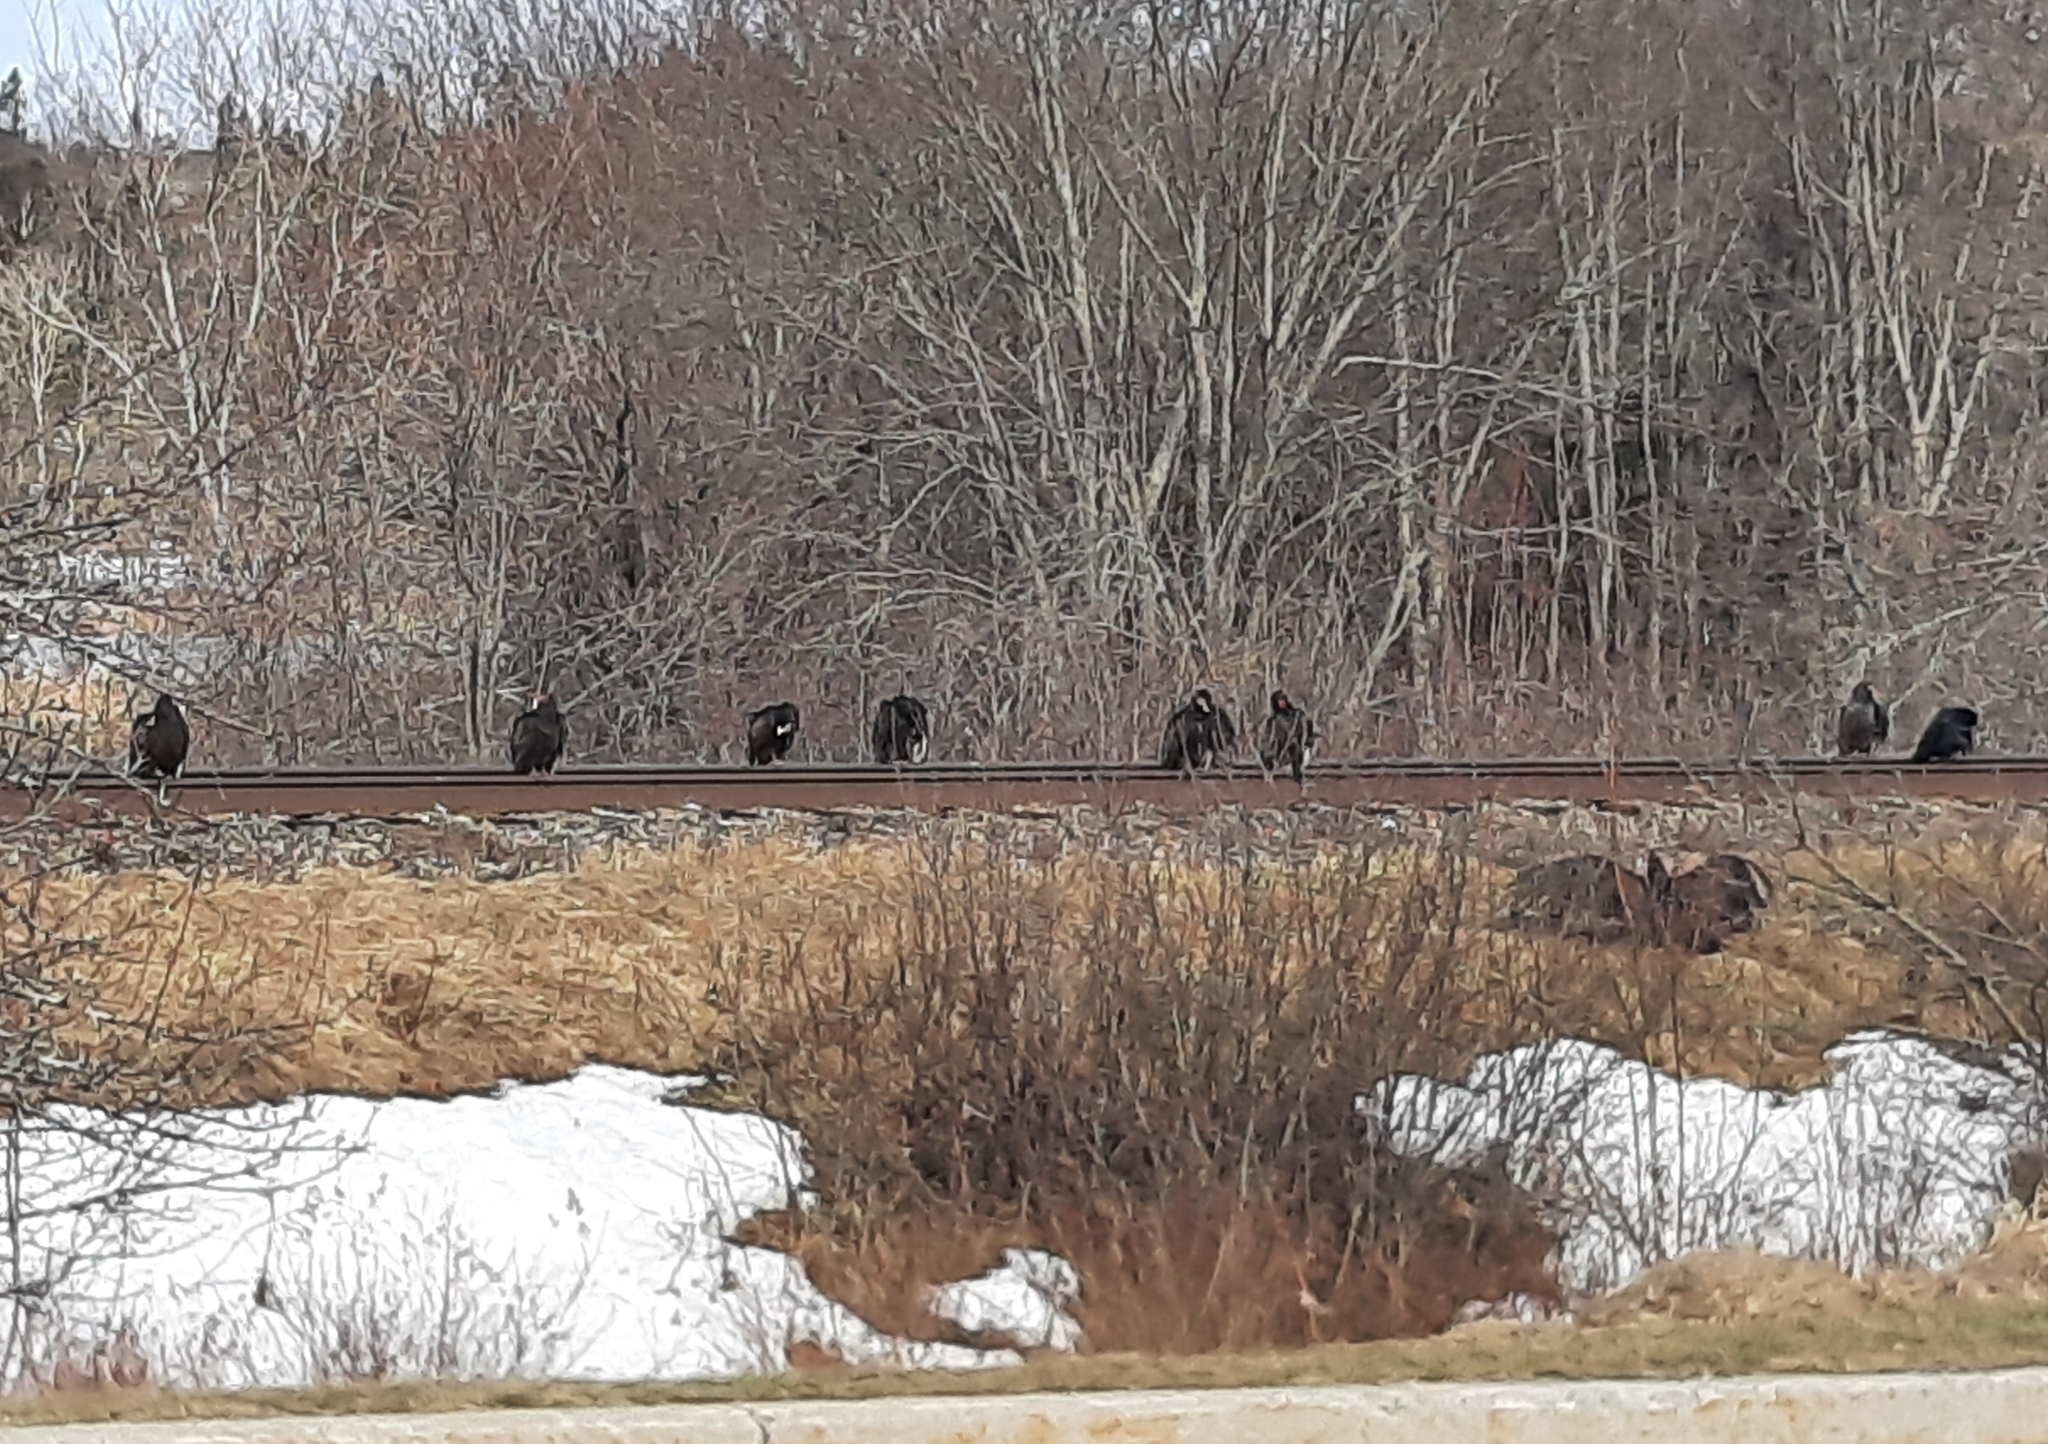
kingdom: Animalia
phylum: Chordata
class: Aves
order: Accipitriformes
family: Cathartidae
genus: Cathartes
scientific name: Cathartes aura
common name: Turkey vulture
